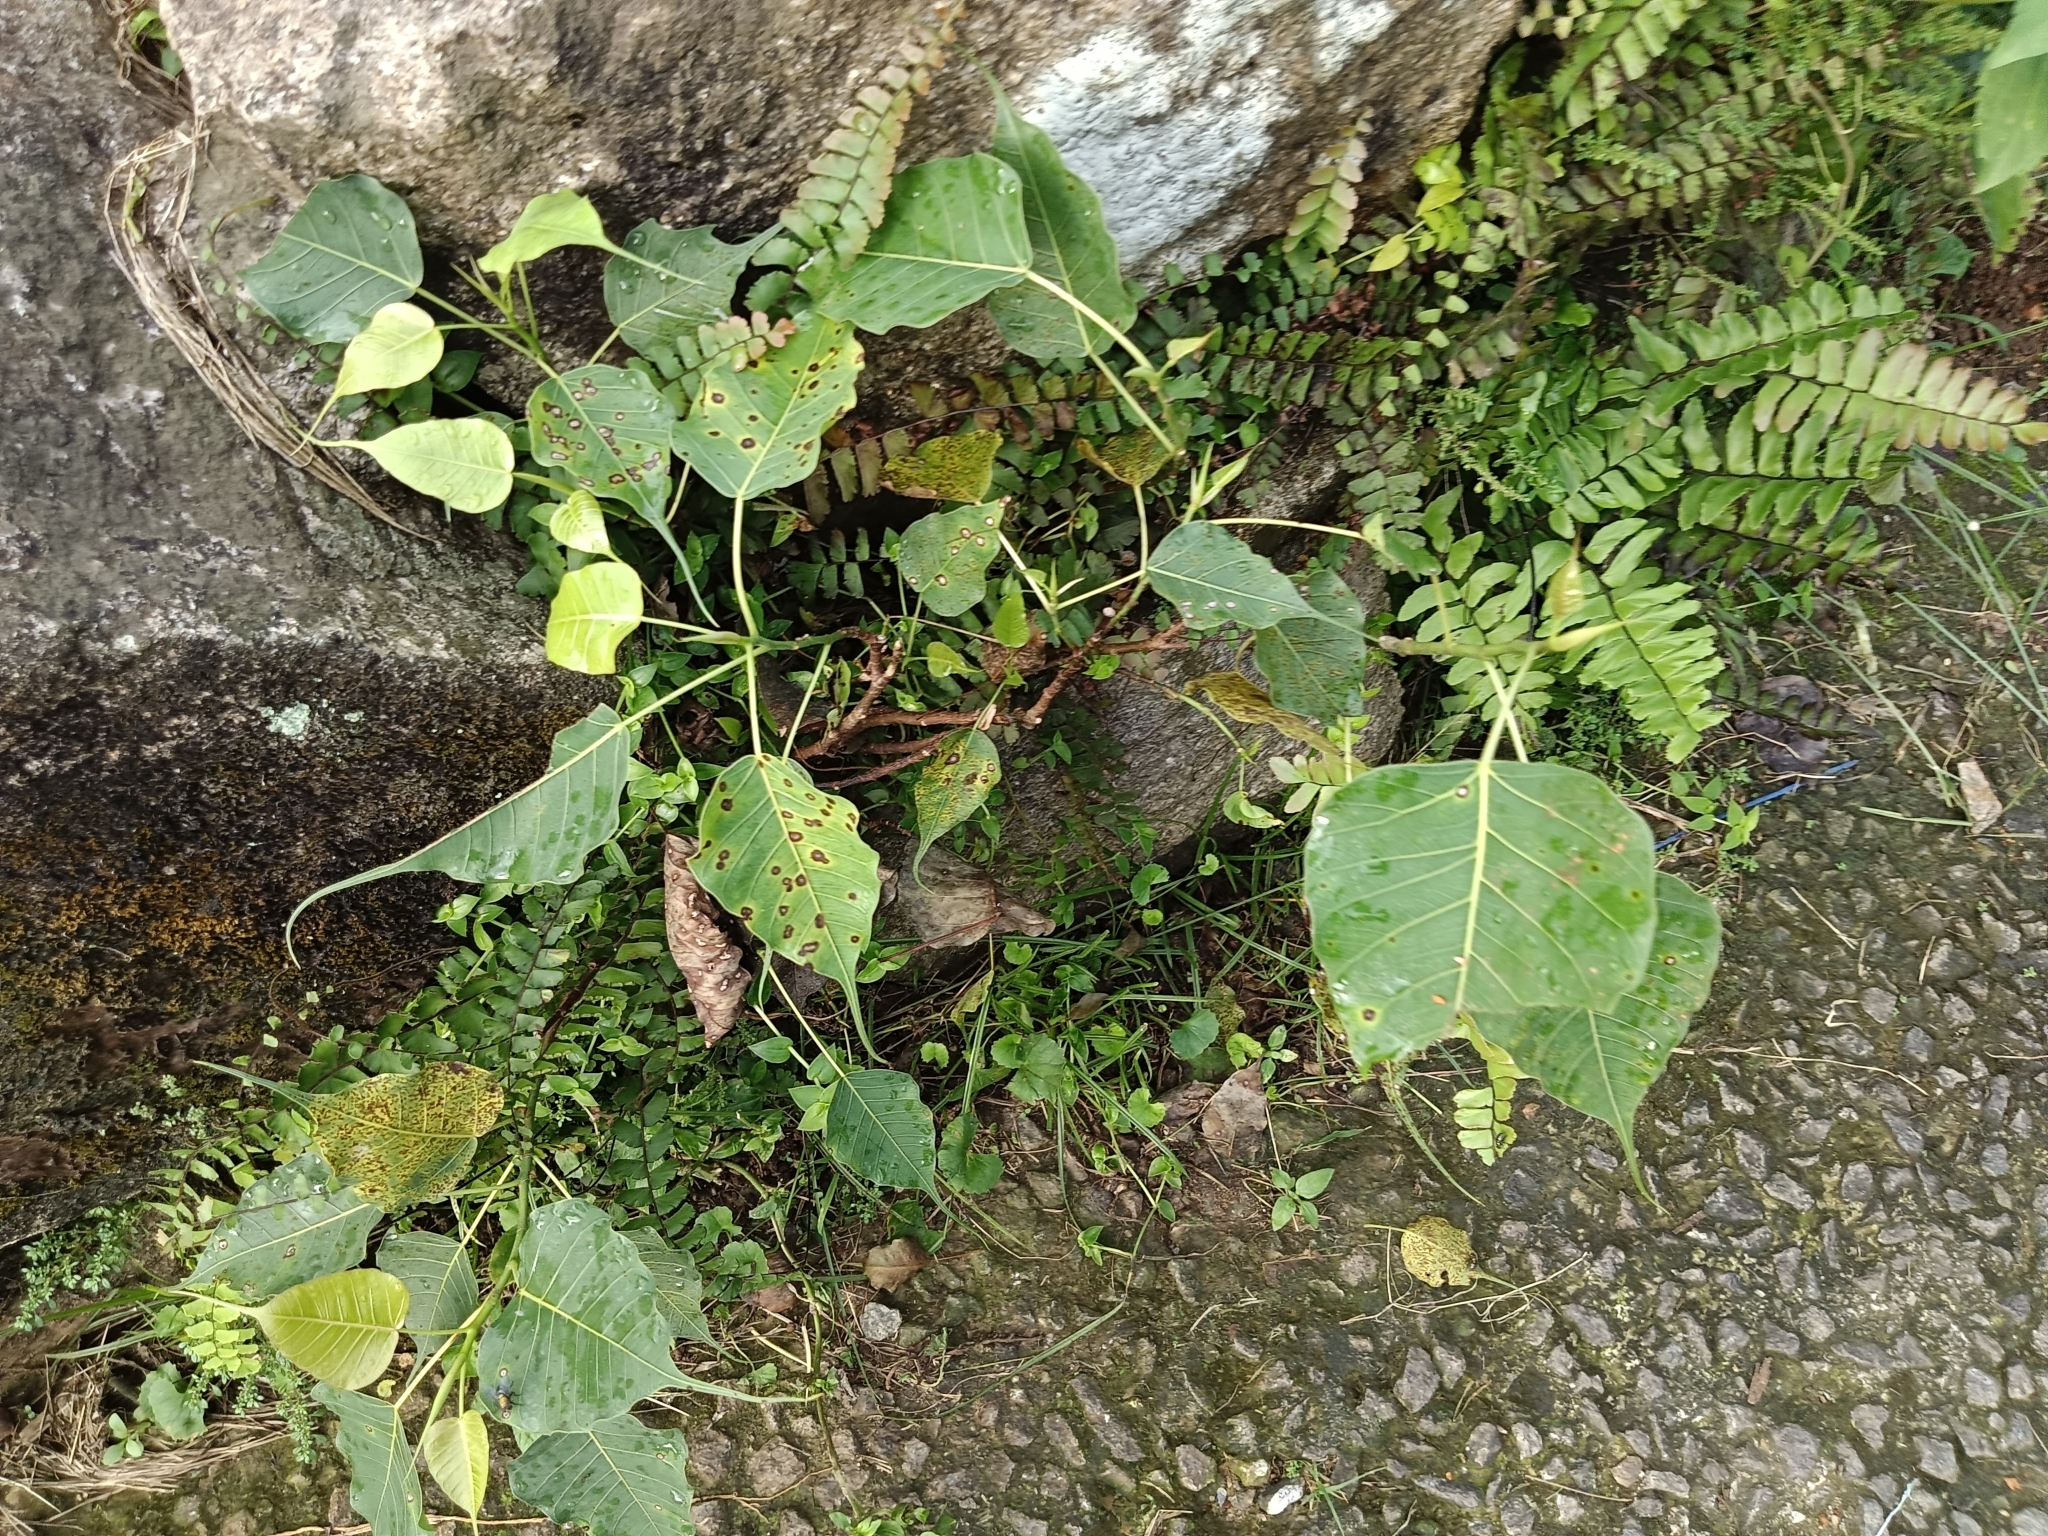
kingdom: Plantae
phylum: Tracheophyta
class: Magnoliopsida
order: Rosales
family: Moraceae
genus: Ficus
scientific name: Ficus religiosa
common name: Bodhi tree
